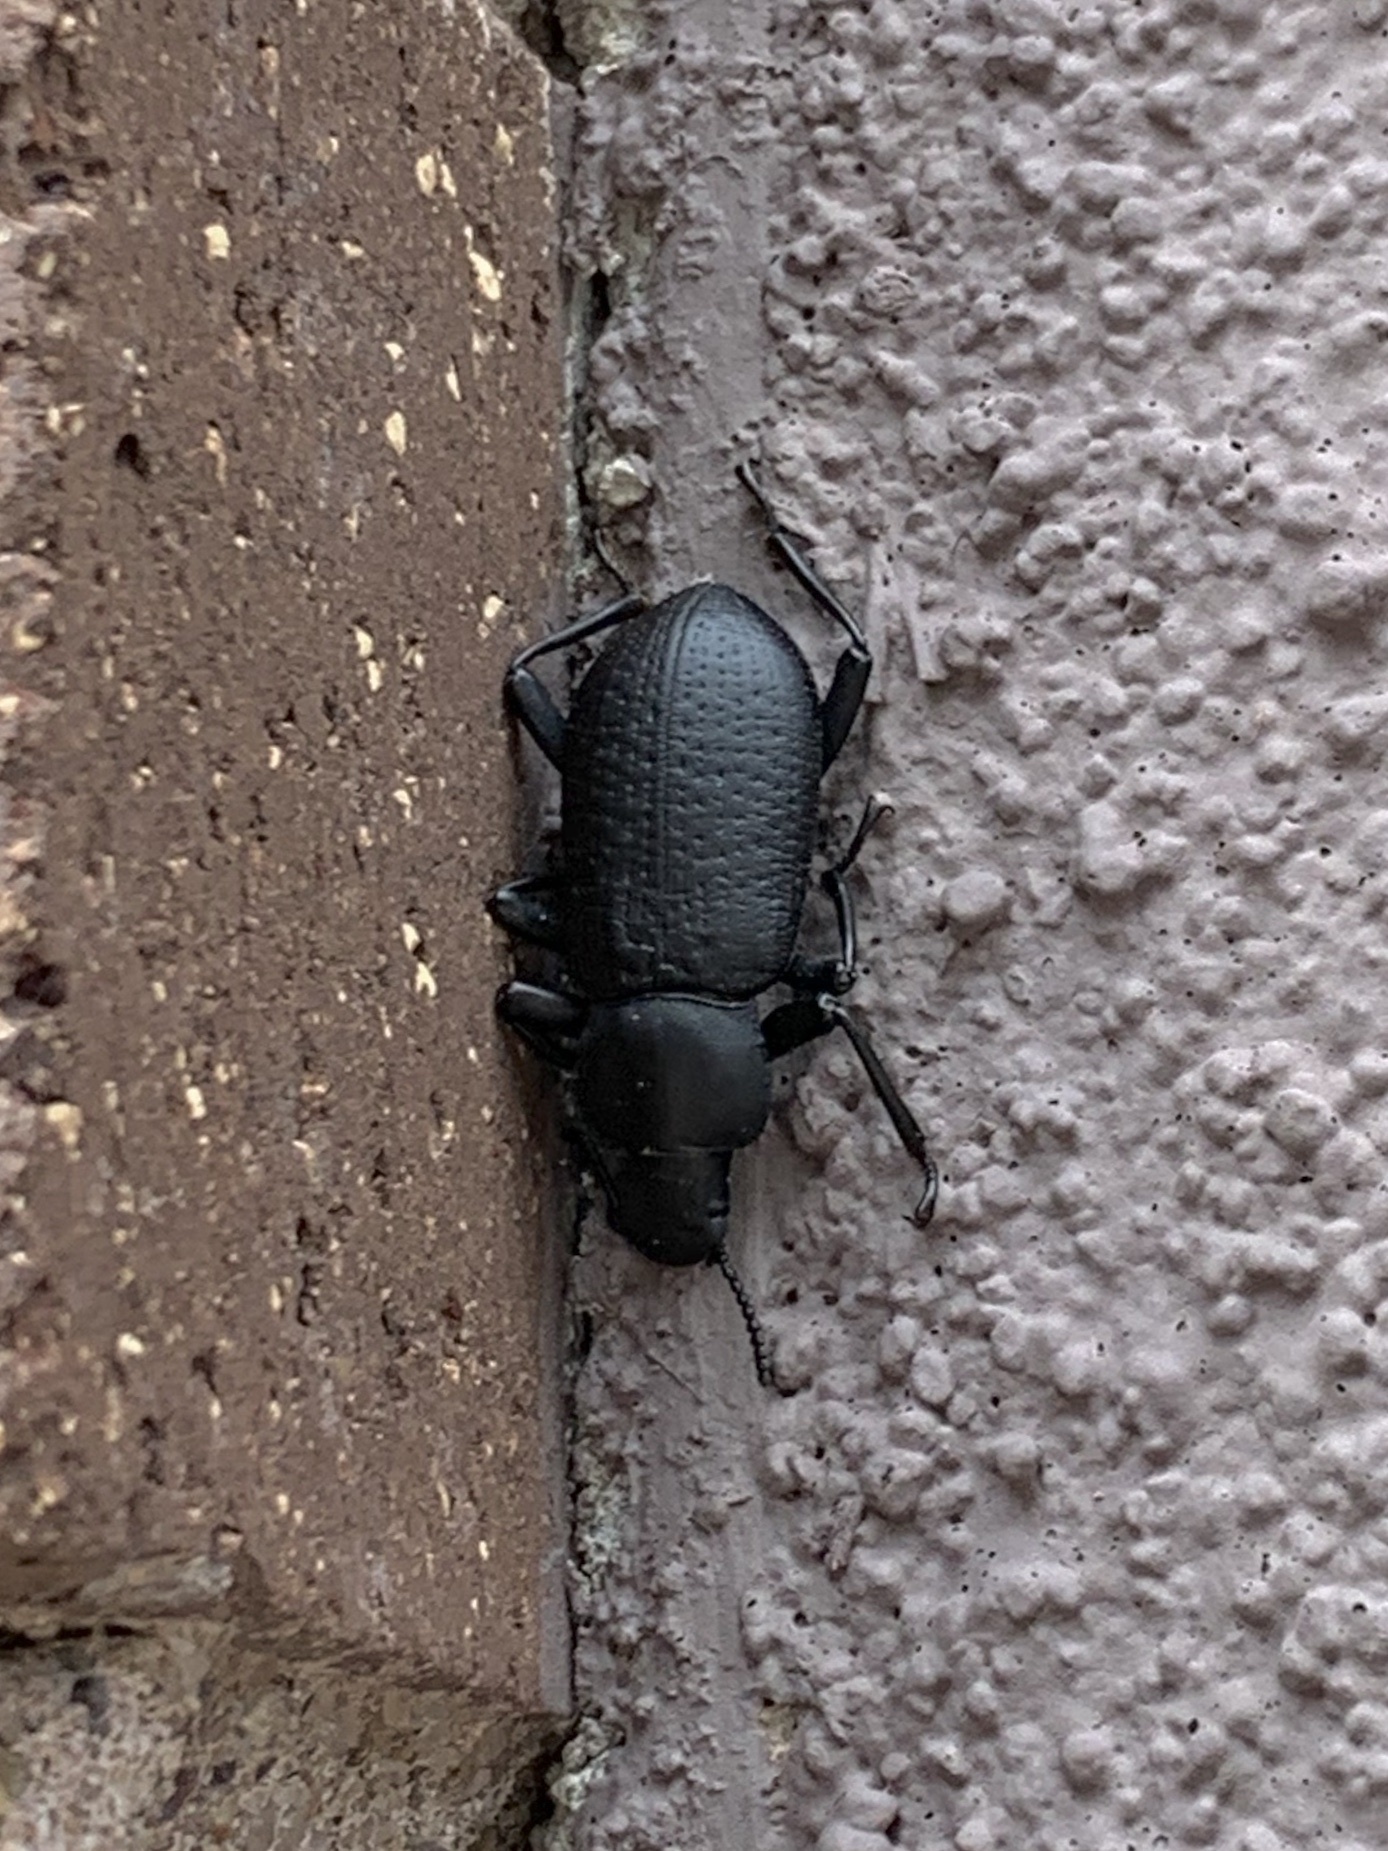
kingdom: Animalia
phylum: Arthropoda
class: Insecta
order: Coleoptera
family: Tenebrionidae
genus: Iphthiminus
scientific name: Iphthiminus lewisii
